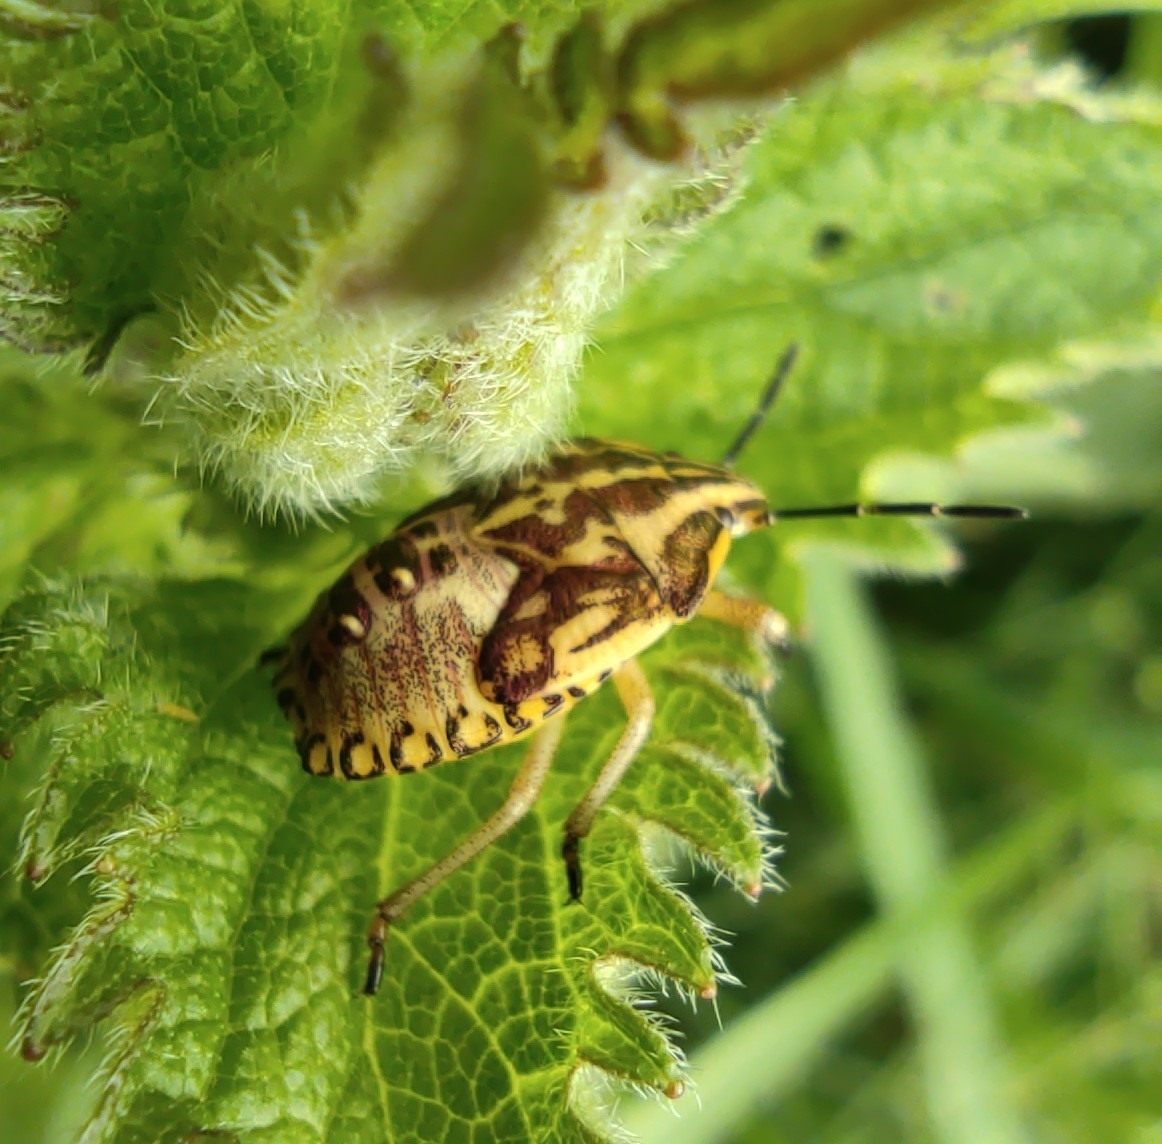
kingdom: Animalia
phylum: Arthropoda
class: Insecta
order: Hemiptera
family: Pentatomidae
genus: Carpocoris
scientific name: Carpocoris purpureipennis
